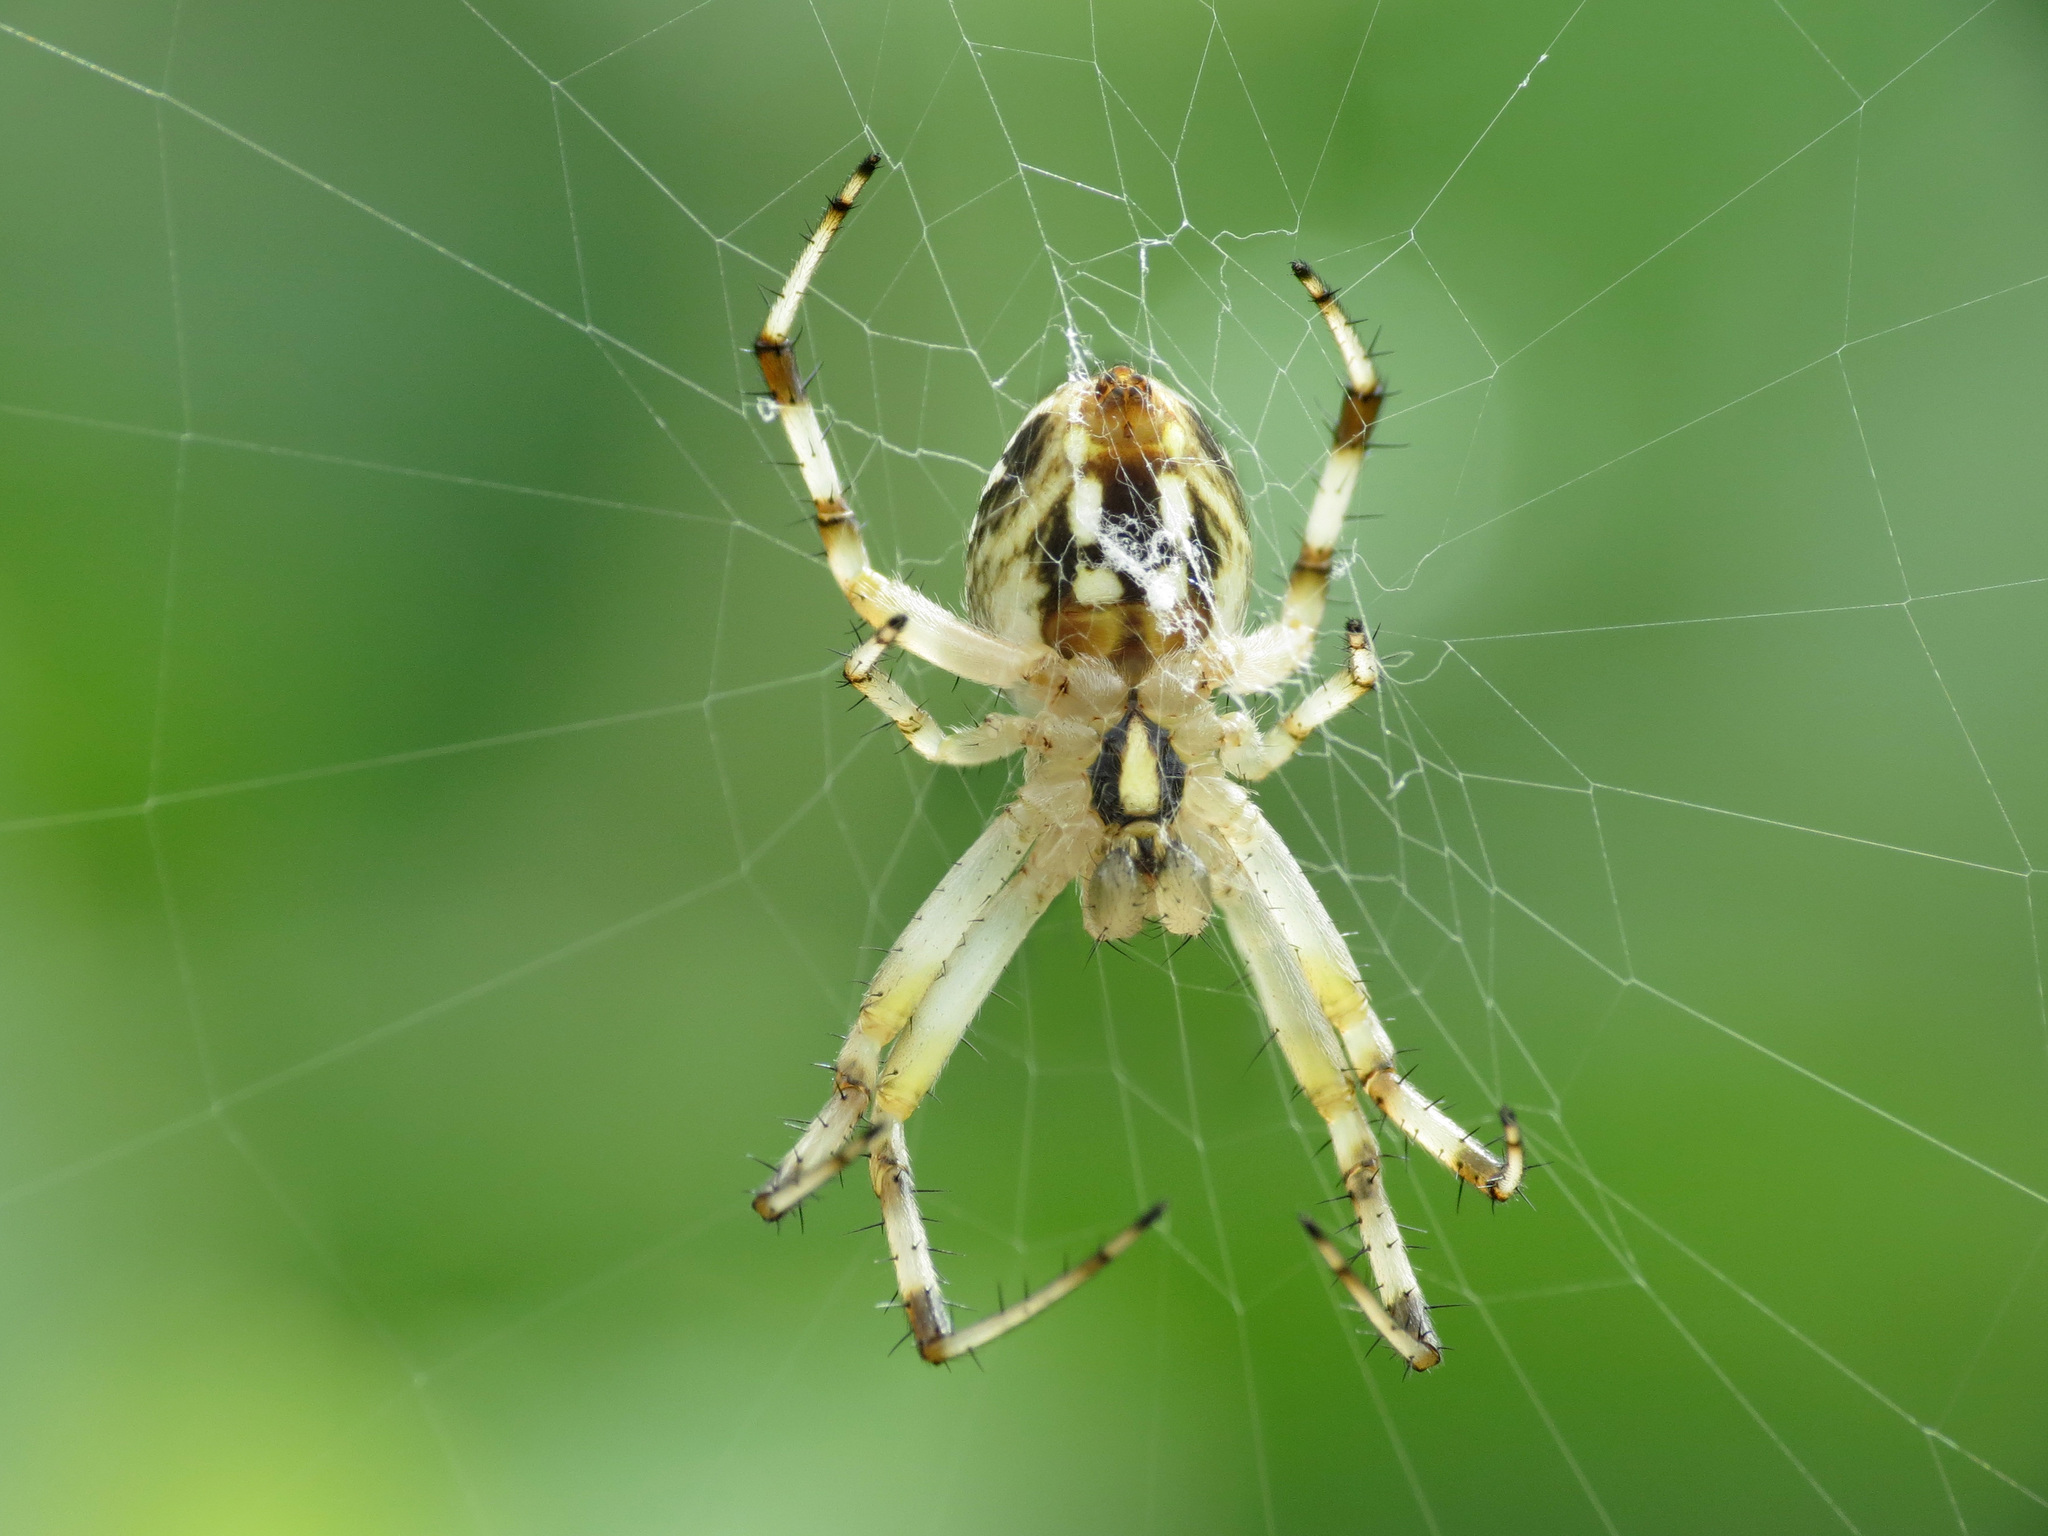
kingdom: Animalia
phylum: Arthropoda
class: Arachnida
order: Araneae
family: Araneidae
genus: Neoscona
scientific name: Neoscona oaxacensis
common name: Orb weavers
